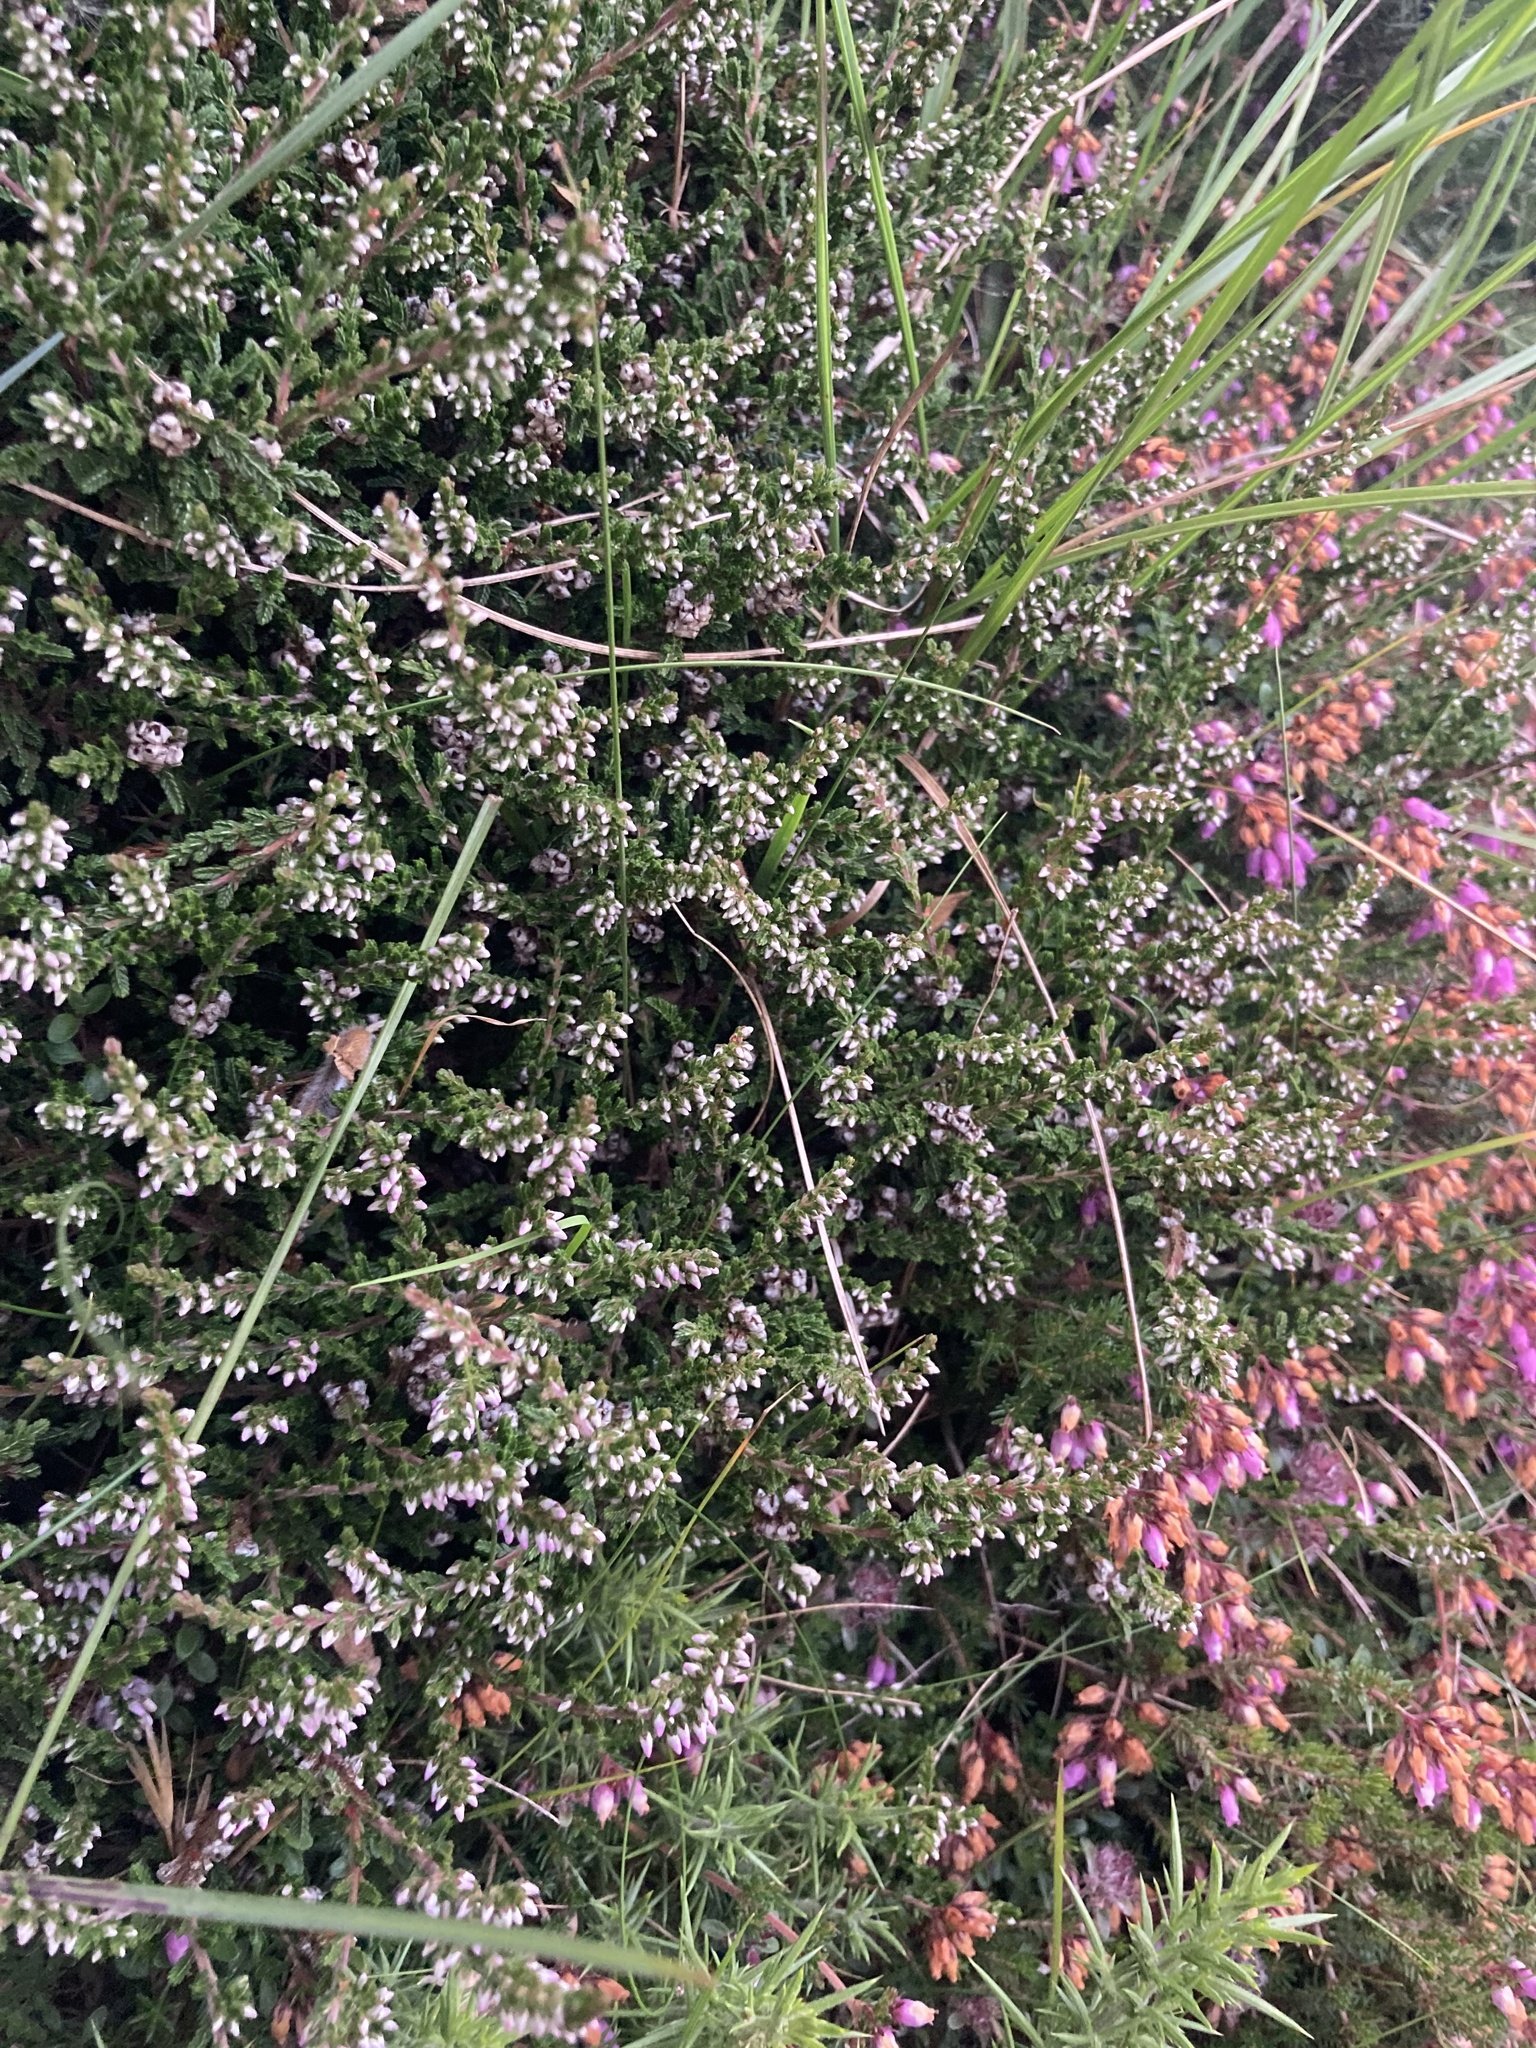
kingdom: Plantae
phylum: Tracheophyta
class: Magnoliopsida
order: Ericales
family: Ericaceae
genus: Calluna
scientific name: Calluna vulgaris
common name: Heather
